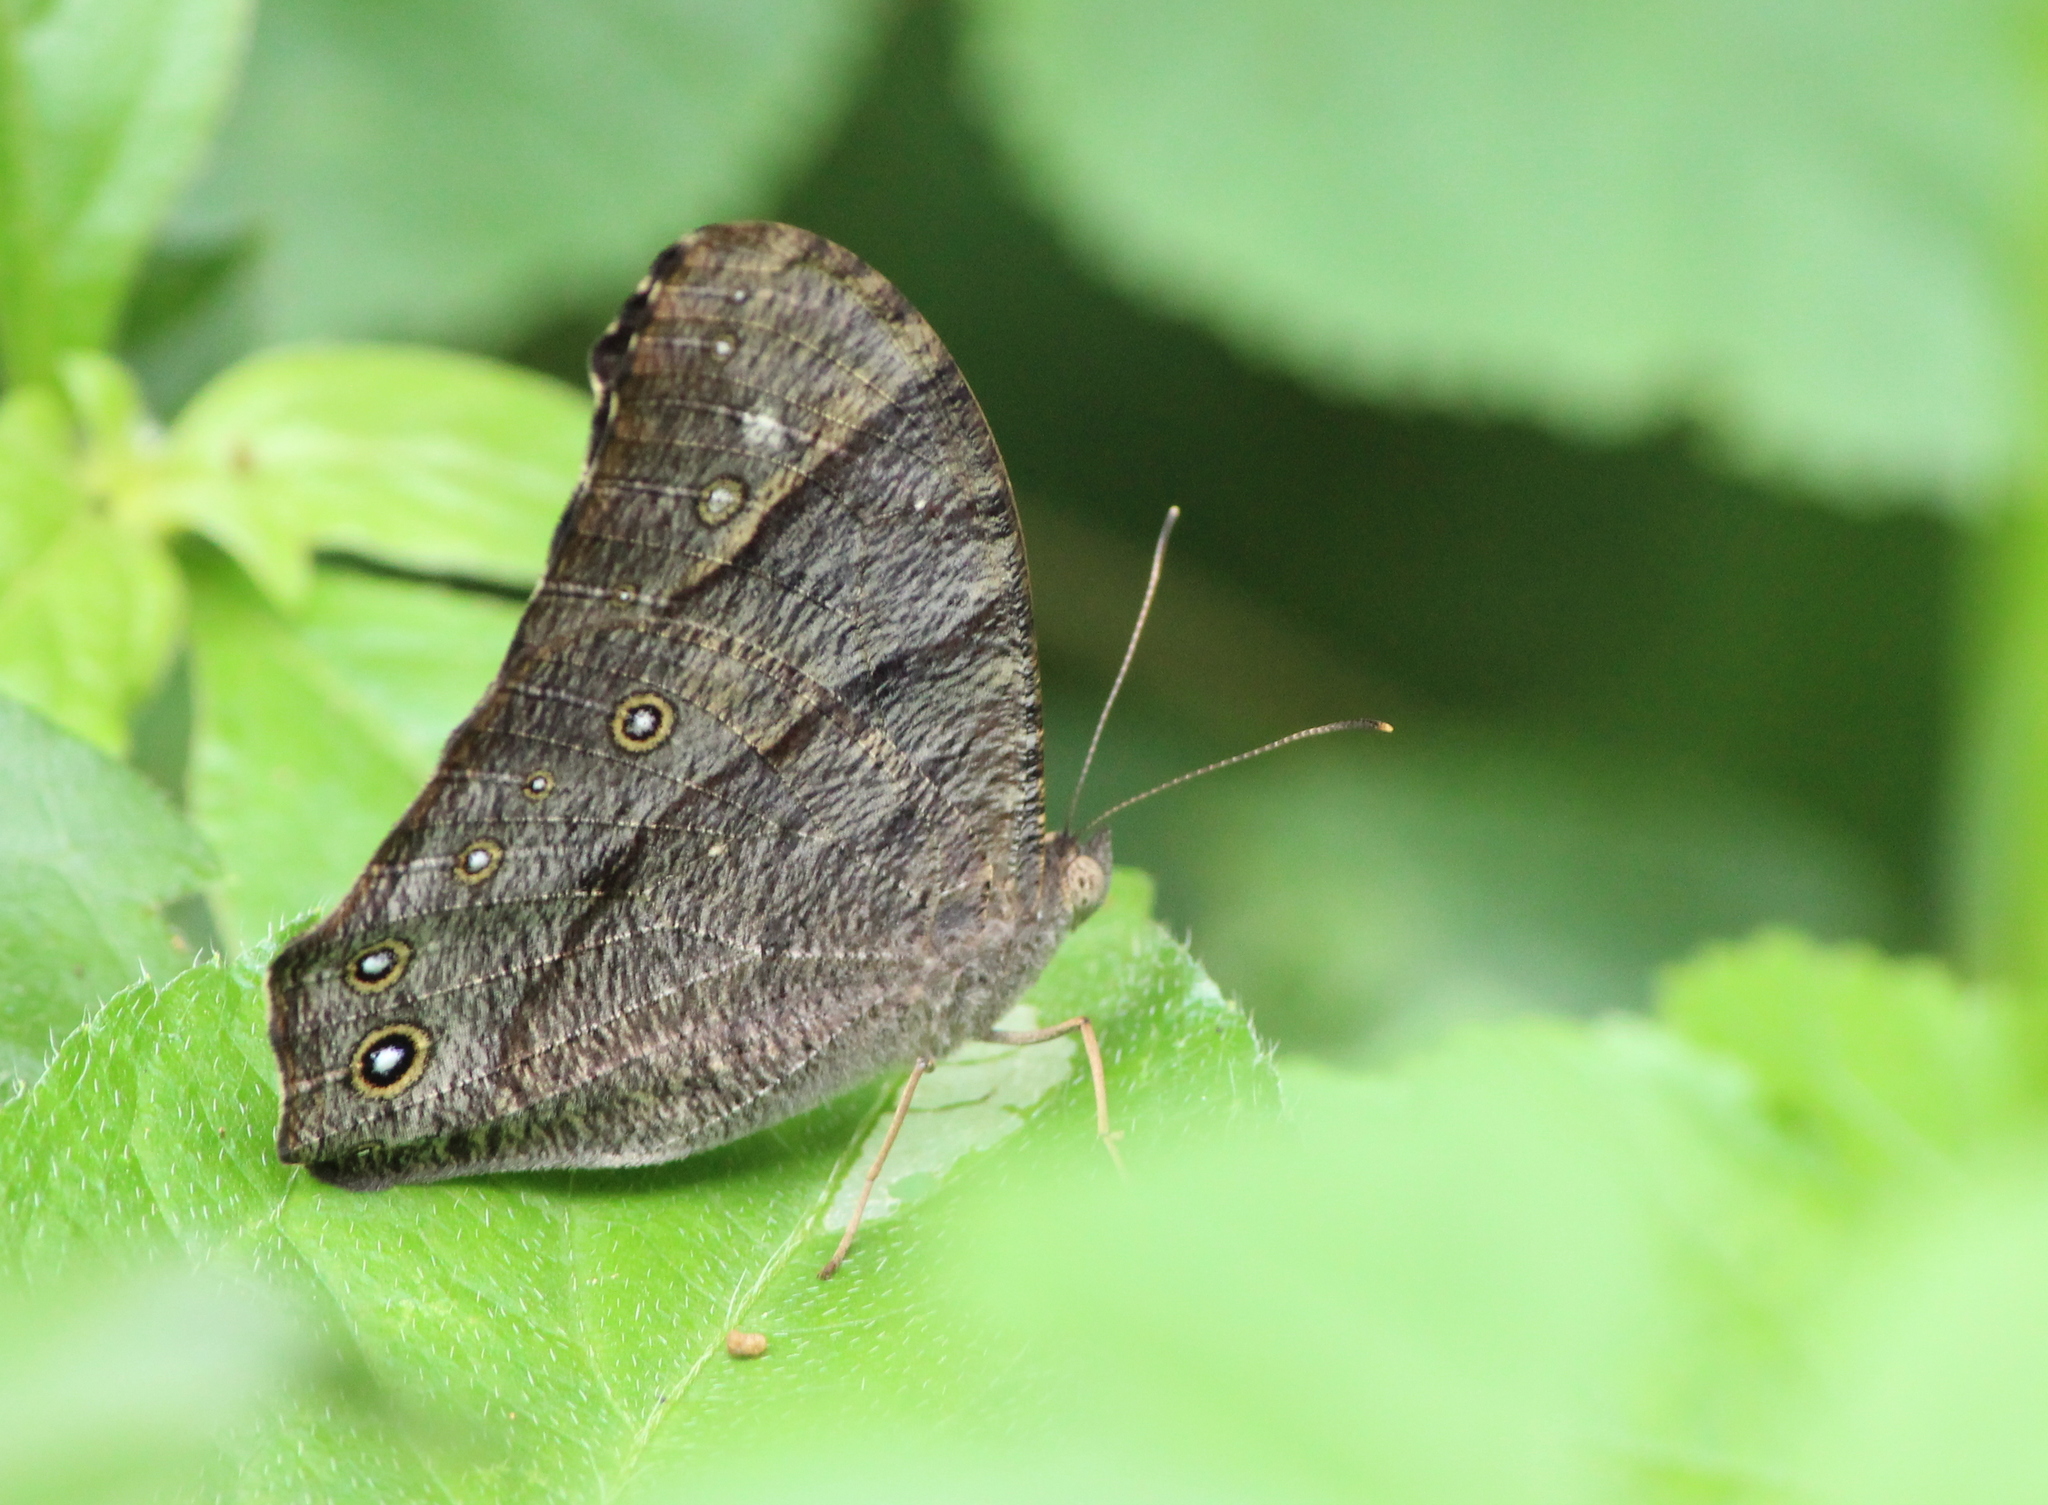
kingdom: Animalia
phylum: Arthropoda
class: Insecta
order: Lepidoptera
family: Nymphalidae
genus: Melanitis
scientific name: Melanitis leda
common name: Twilight brown
